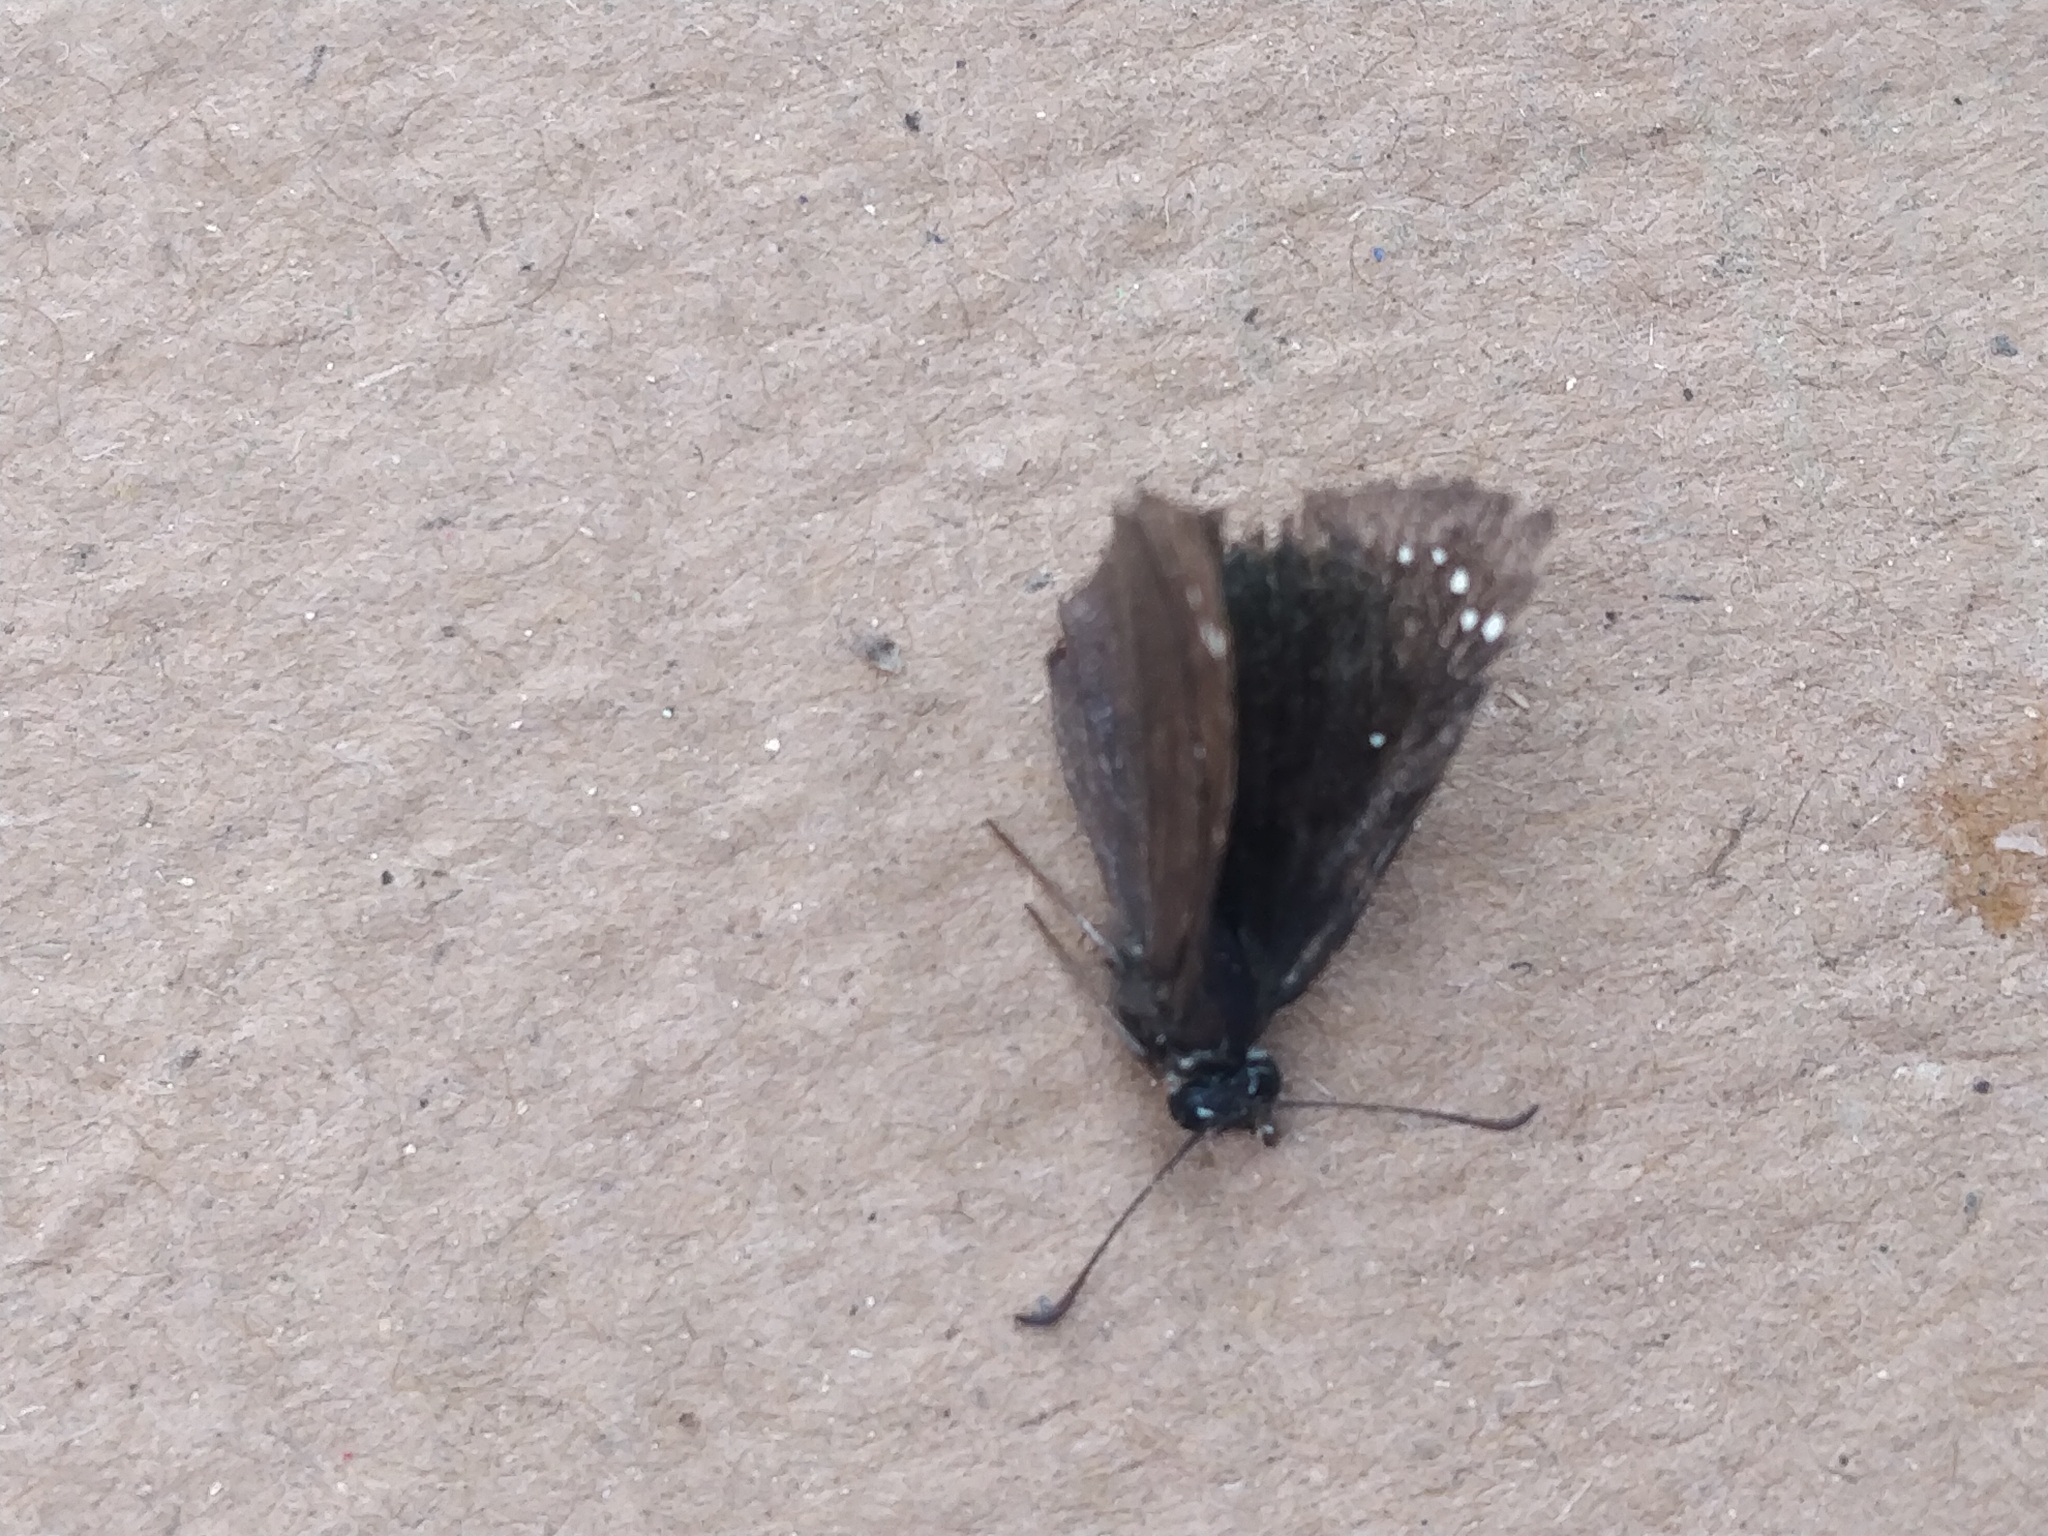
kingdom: Animalia
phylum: Arthropoda
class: Insecta
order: Lepidoptera
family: Hesperiidae
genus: Pholisora
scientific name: Pholisora catullus
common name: Common sootywing
